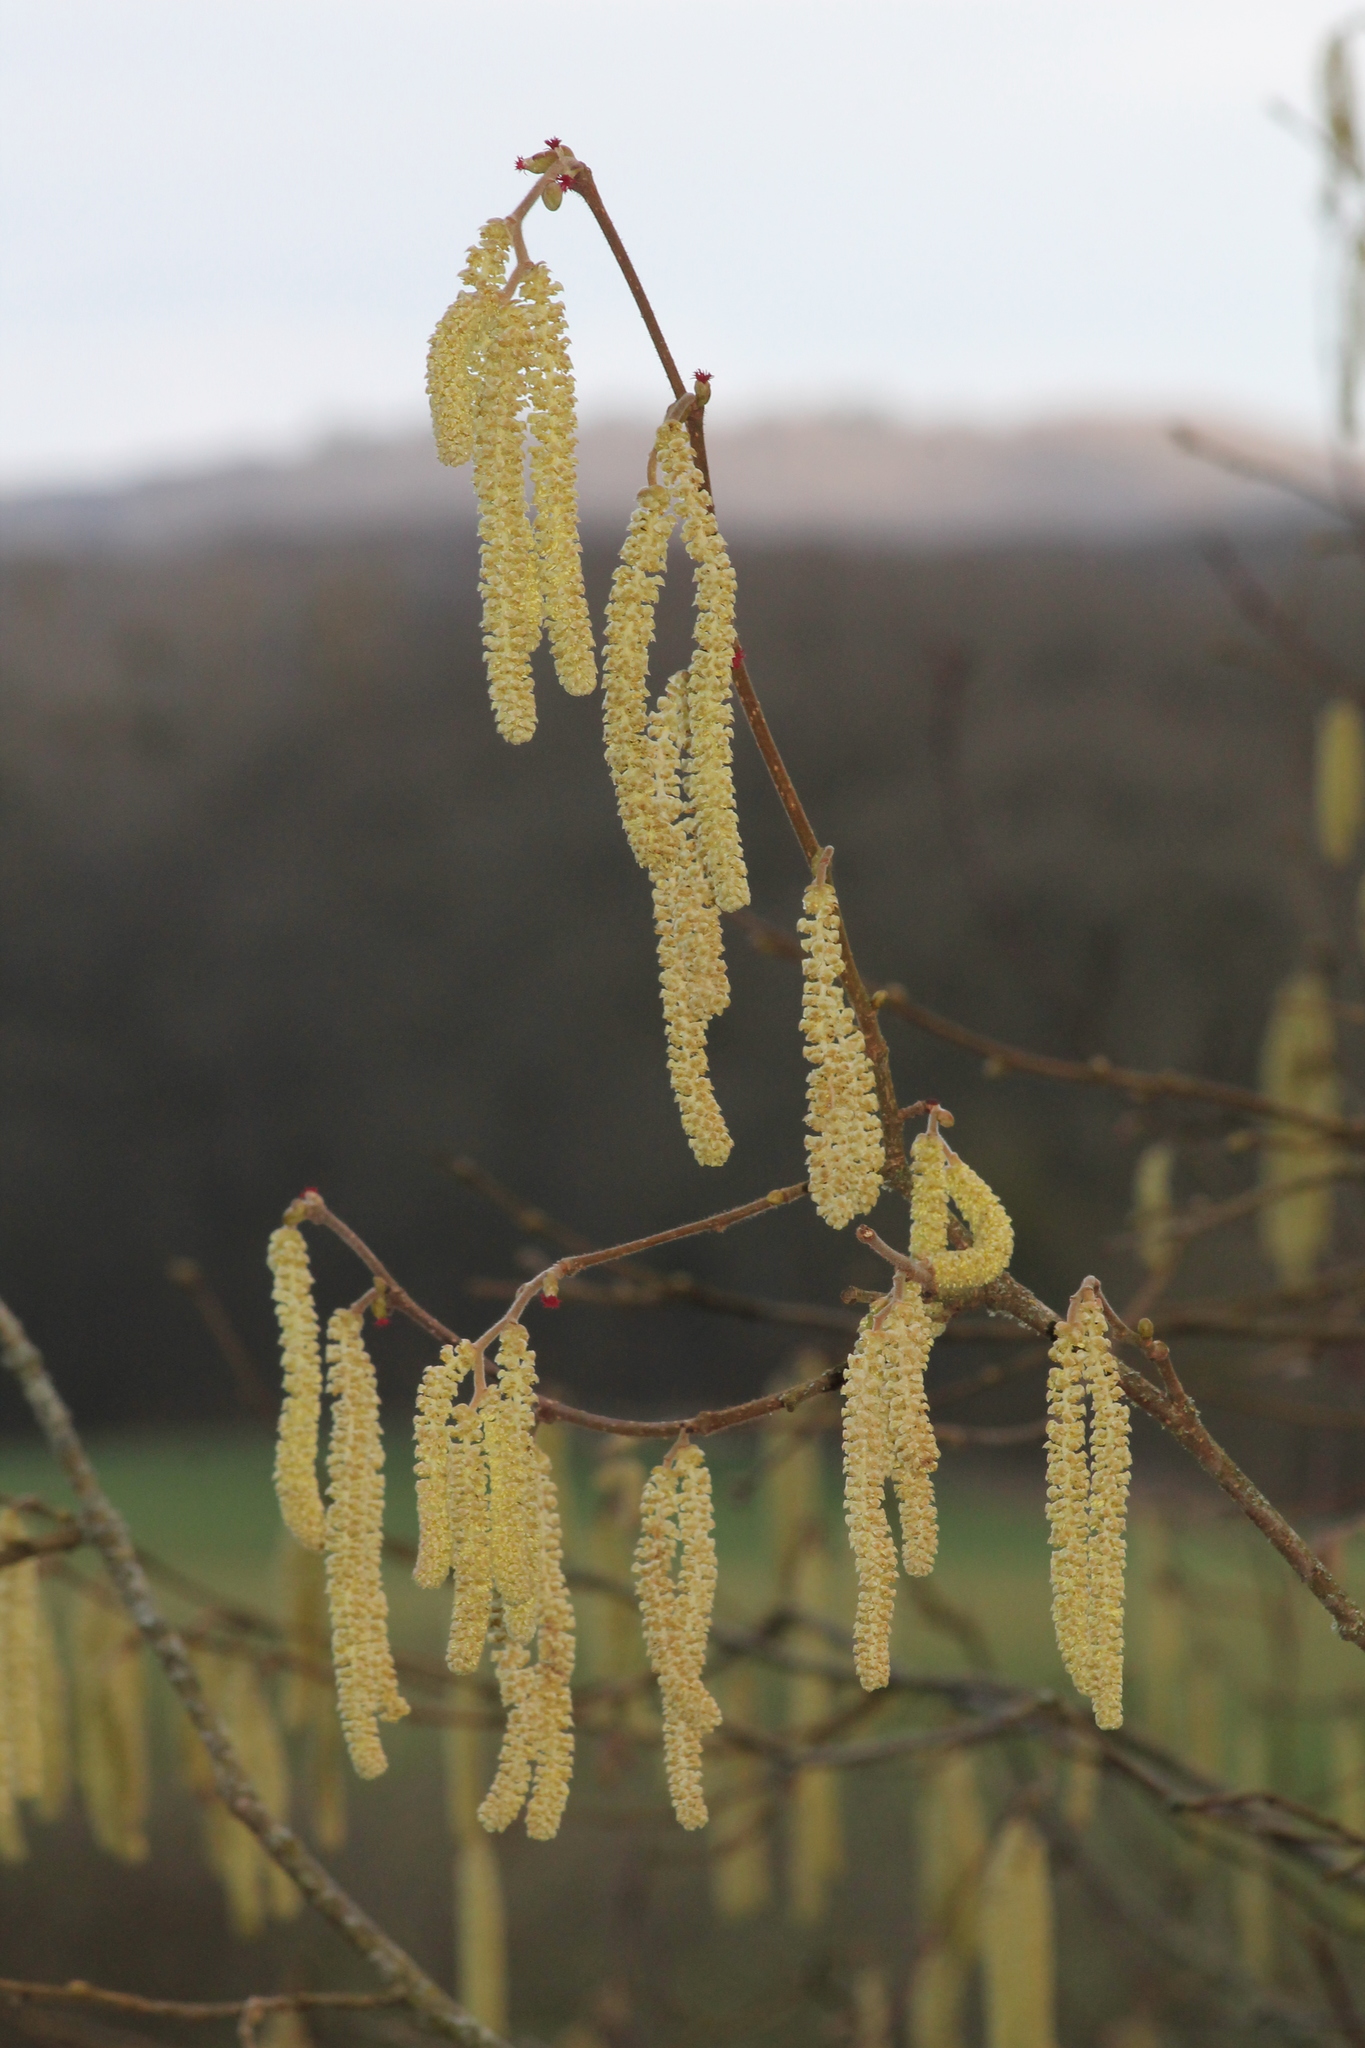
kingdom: Plantae
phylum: Tracheophyta
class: Magnoliopsida
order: Fagales
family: Betulaceae
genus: Corylus
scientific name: Corylus avellana
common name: European hazel
